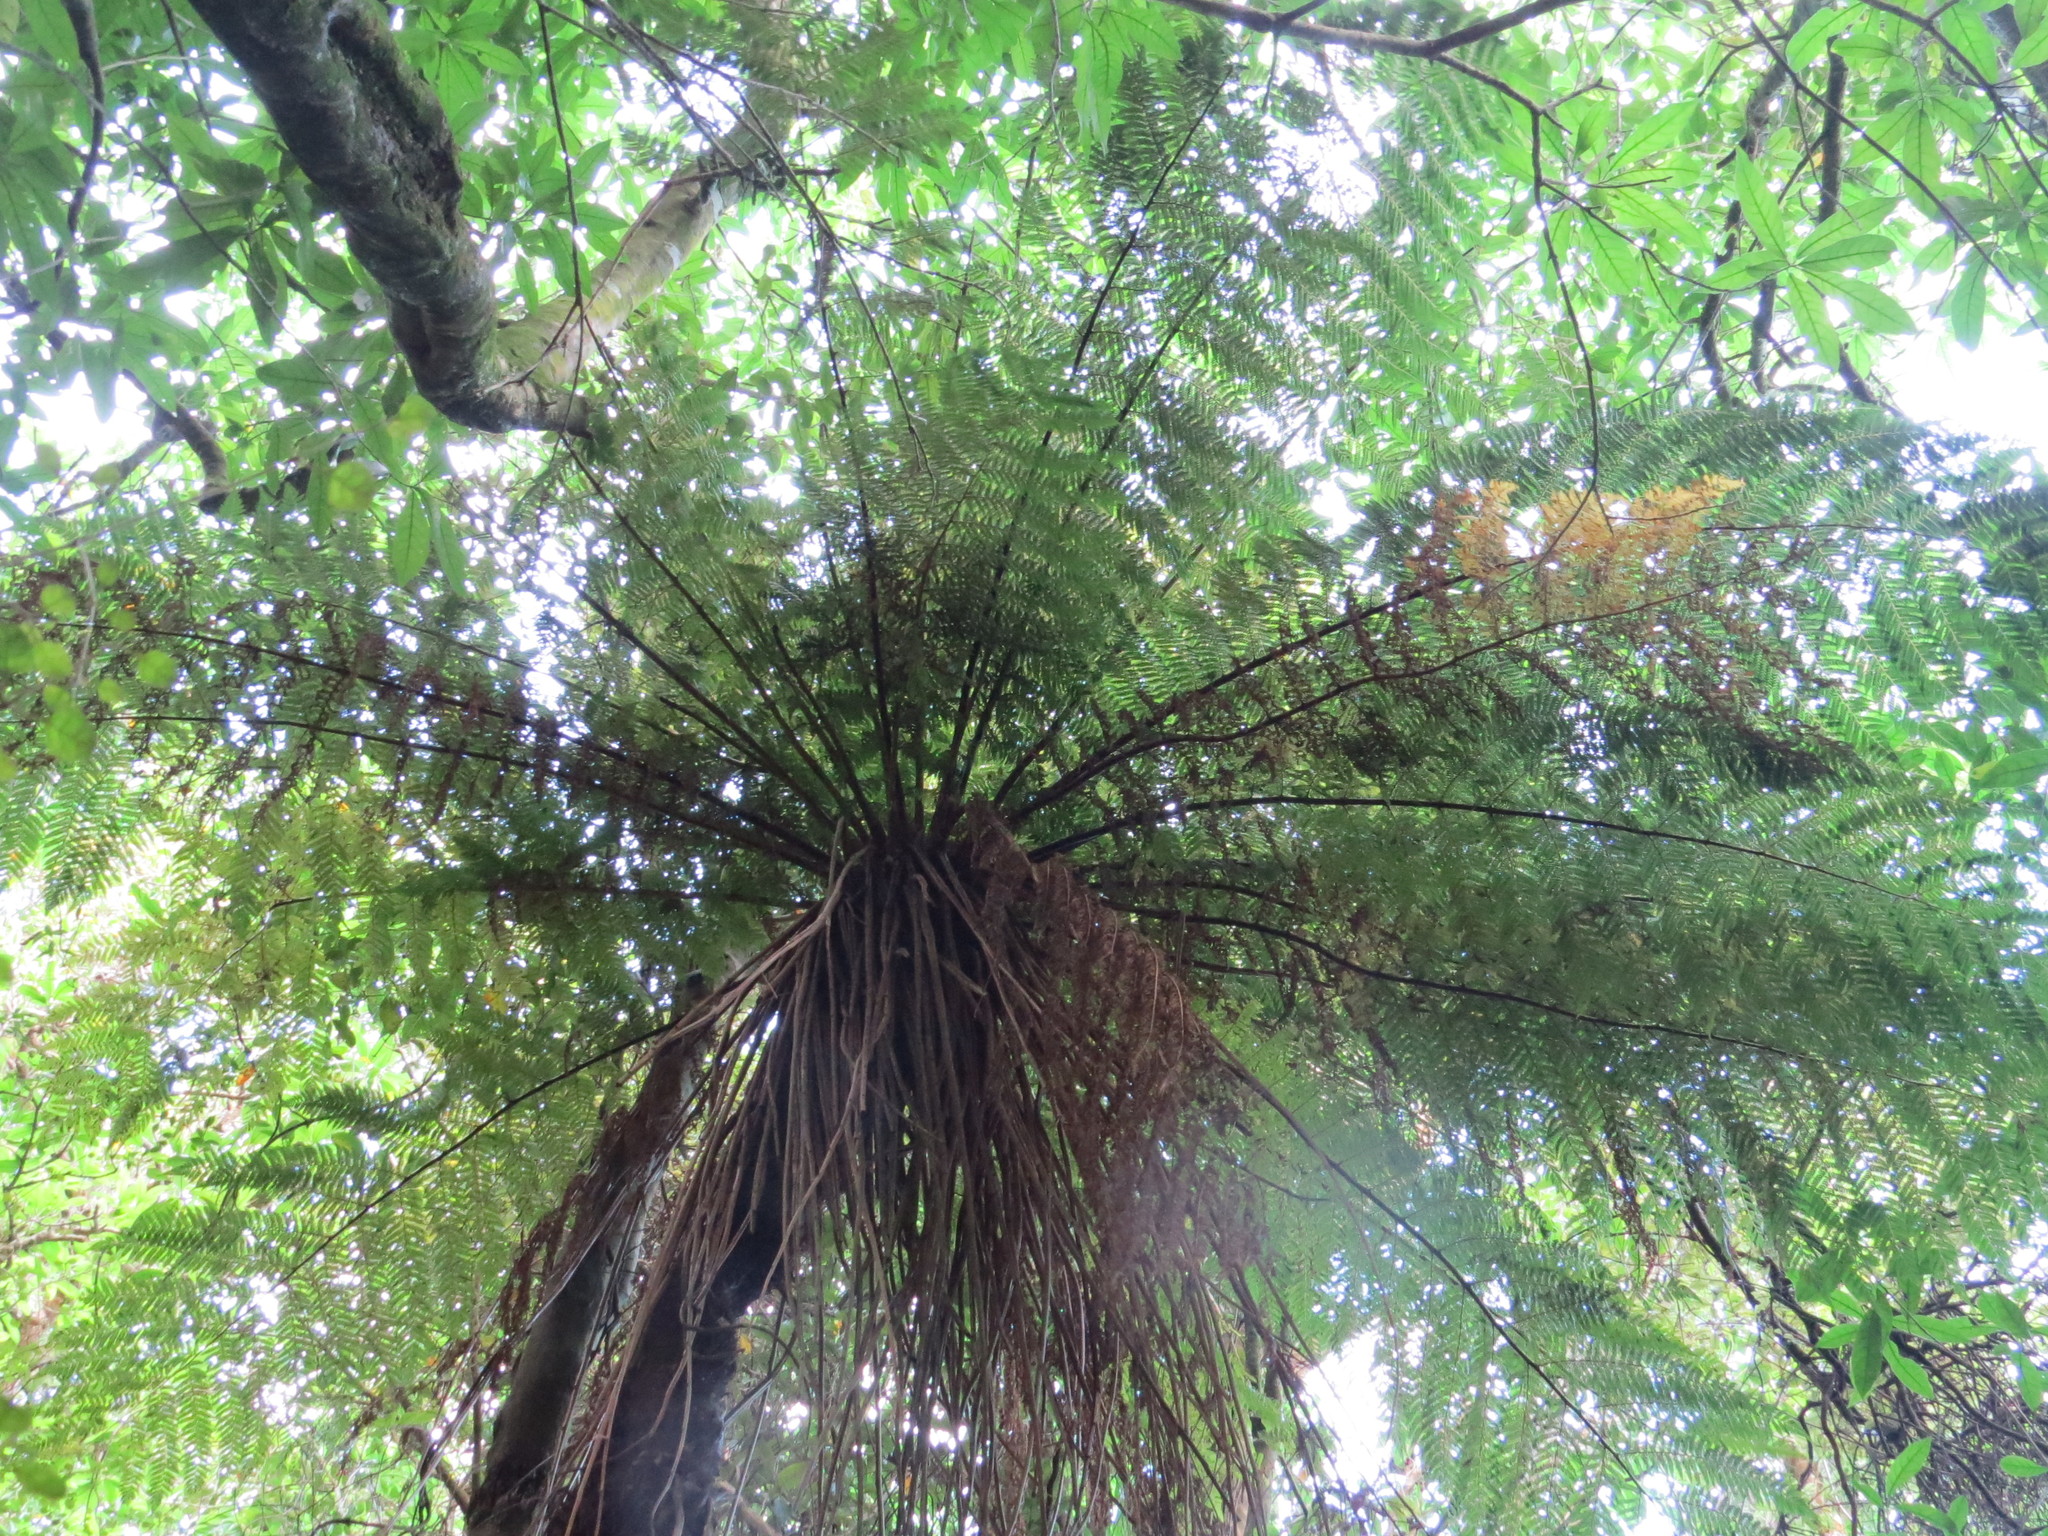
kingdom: Plantae
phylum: Tracheophyta
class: Polypodiopsida
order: Cyatheales
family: Cyatheaceae
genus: Alsophila
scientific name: Alsophila smithii
